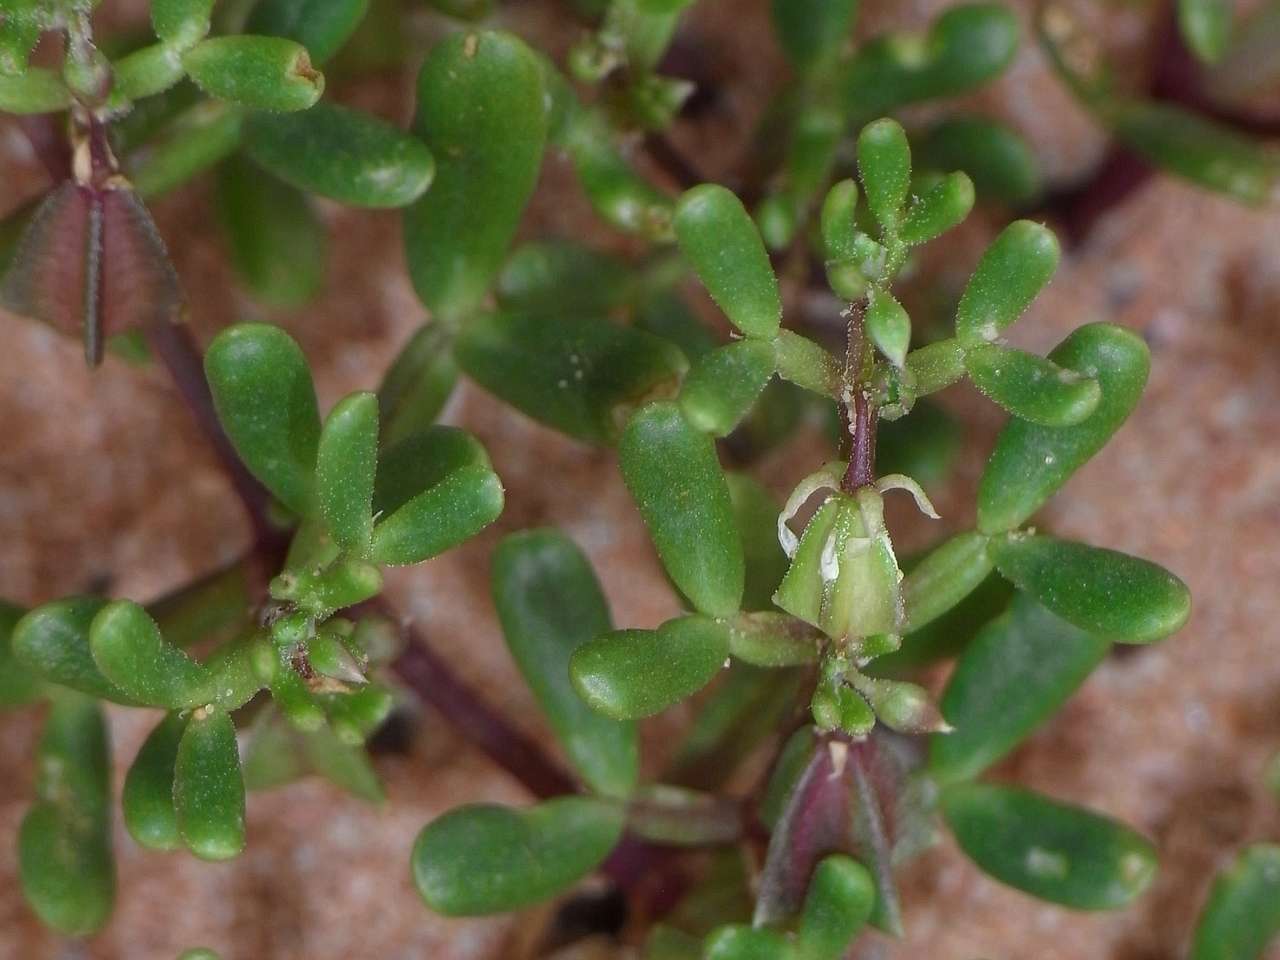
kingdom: Plantae
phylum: Tracheophyta
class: Magnoliopsida
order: Zygophyllales
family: Zygophyllaceae
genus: Roepera
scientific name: Roepera ammophila
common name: Sand twinleaf
